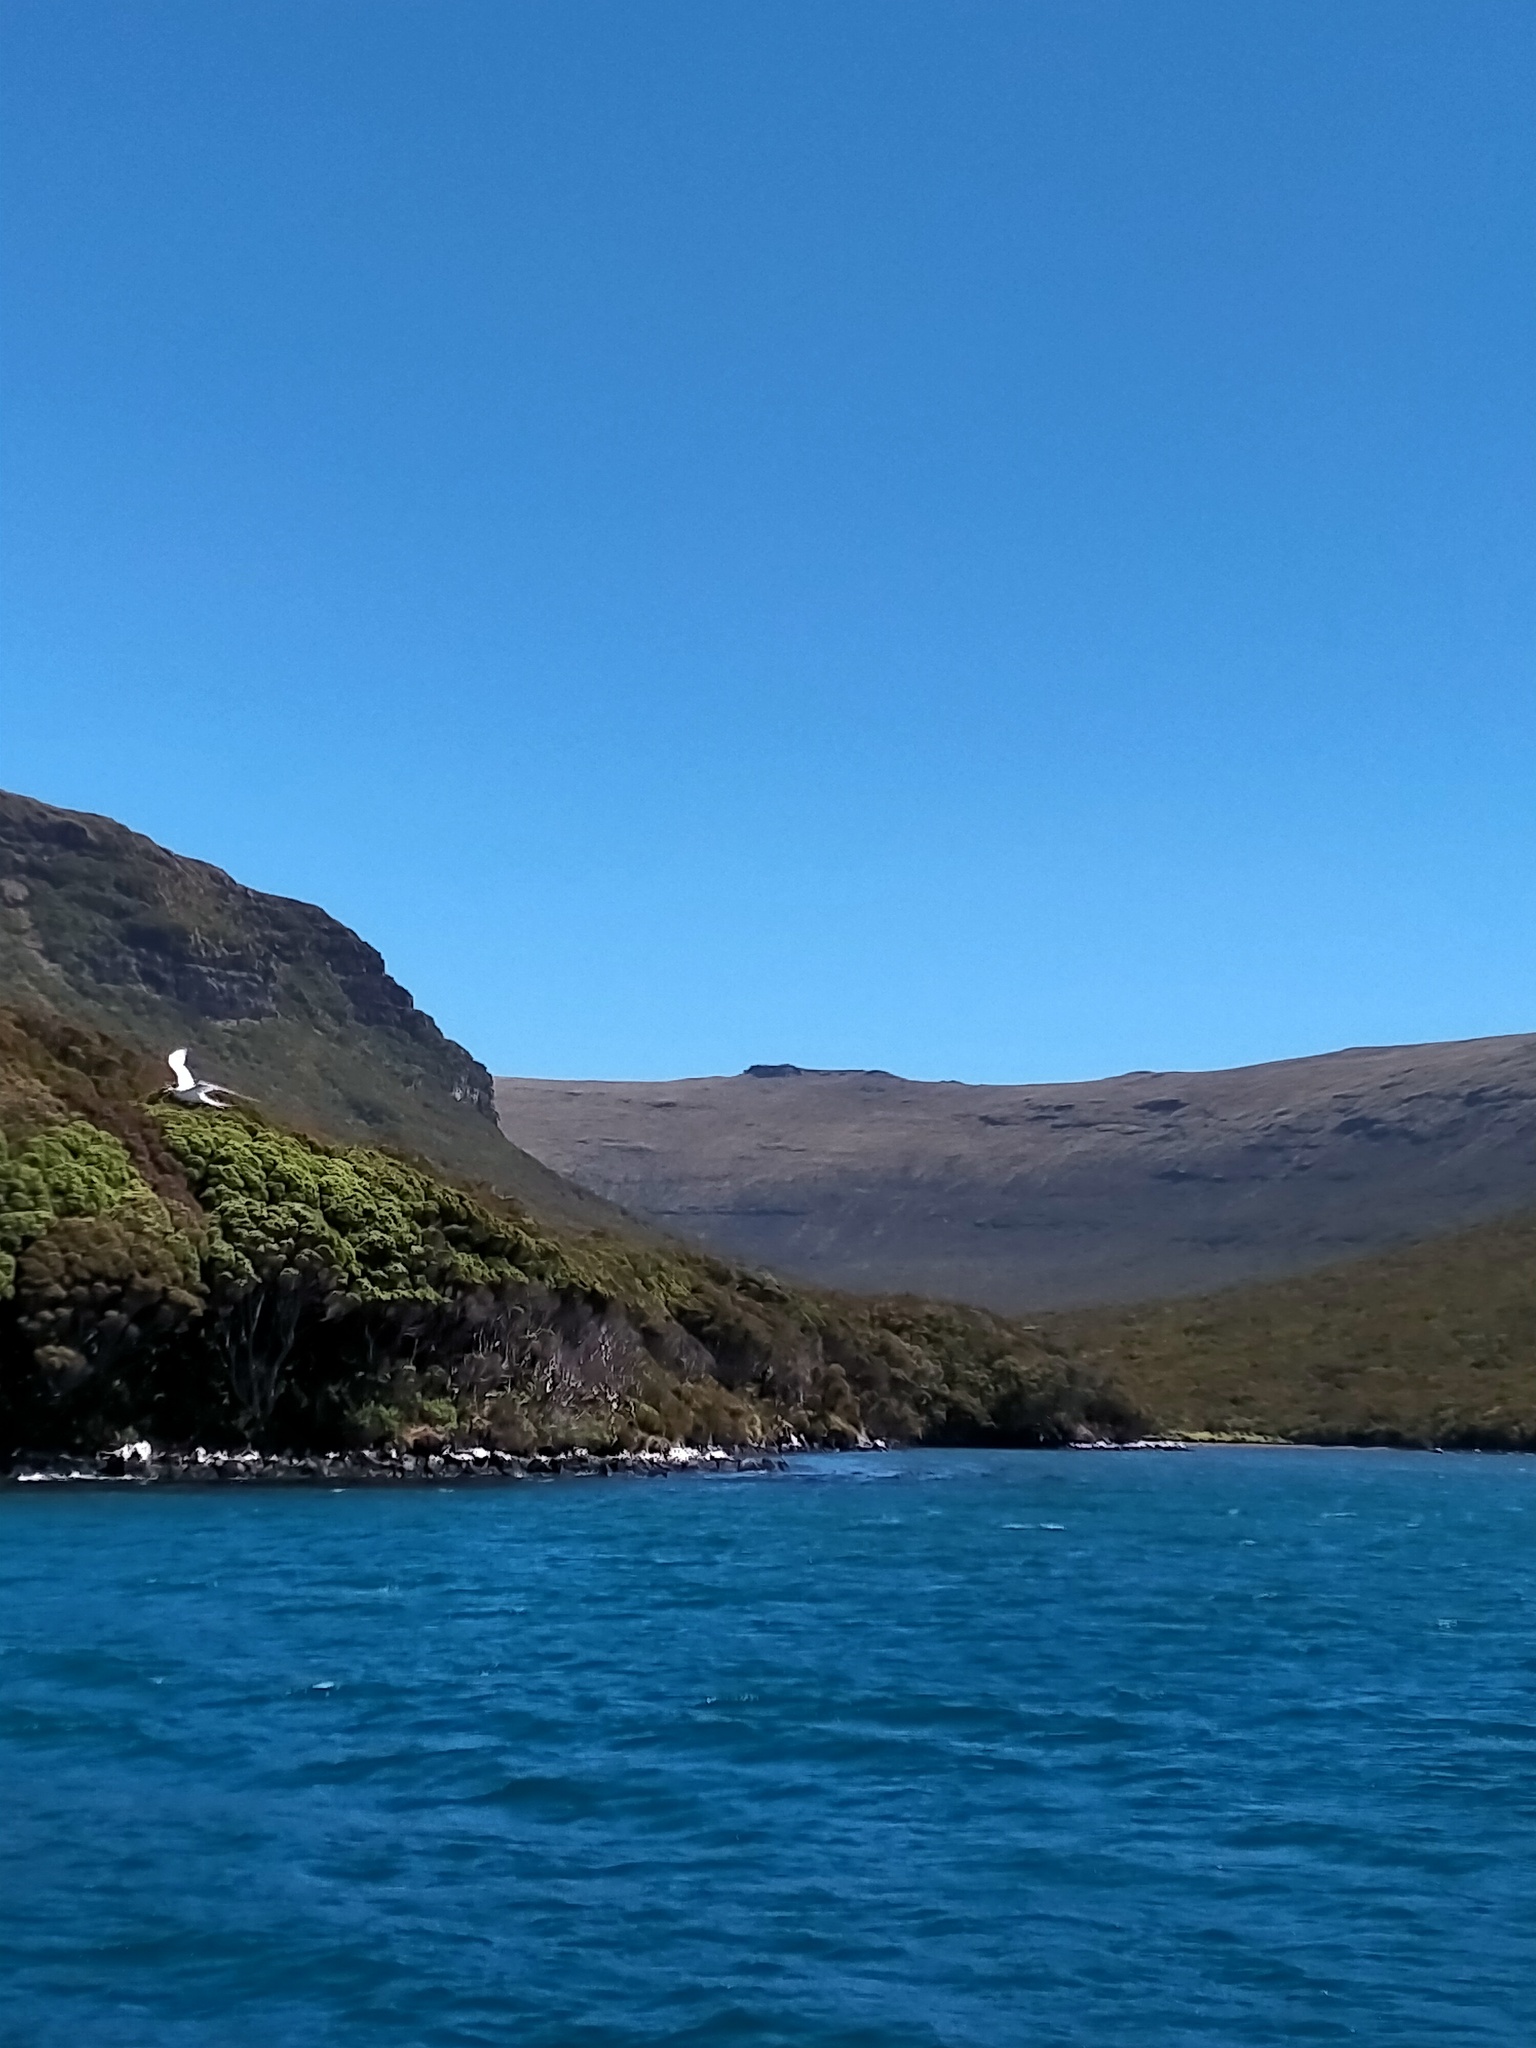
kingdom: Animalia
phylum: Chordata
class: Aves
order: Charadriiformes
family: Laridae
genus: Sterna
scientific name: Sterna striata
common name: White-fronted tern
